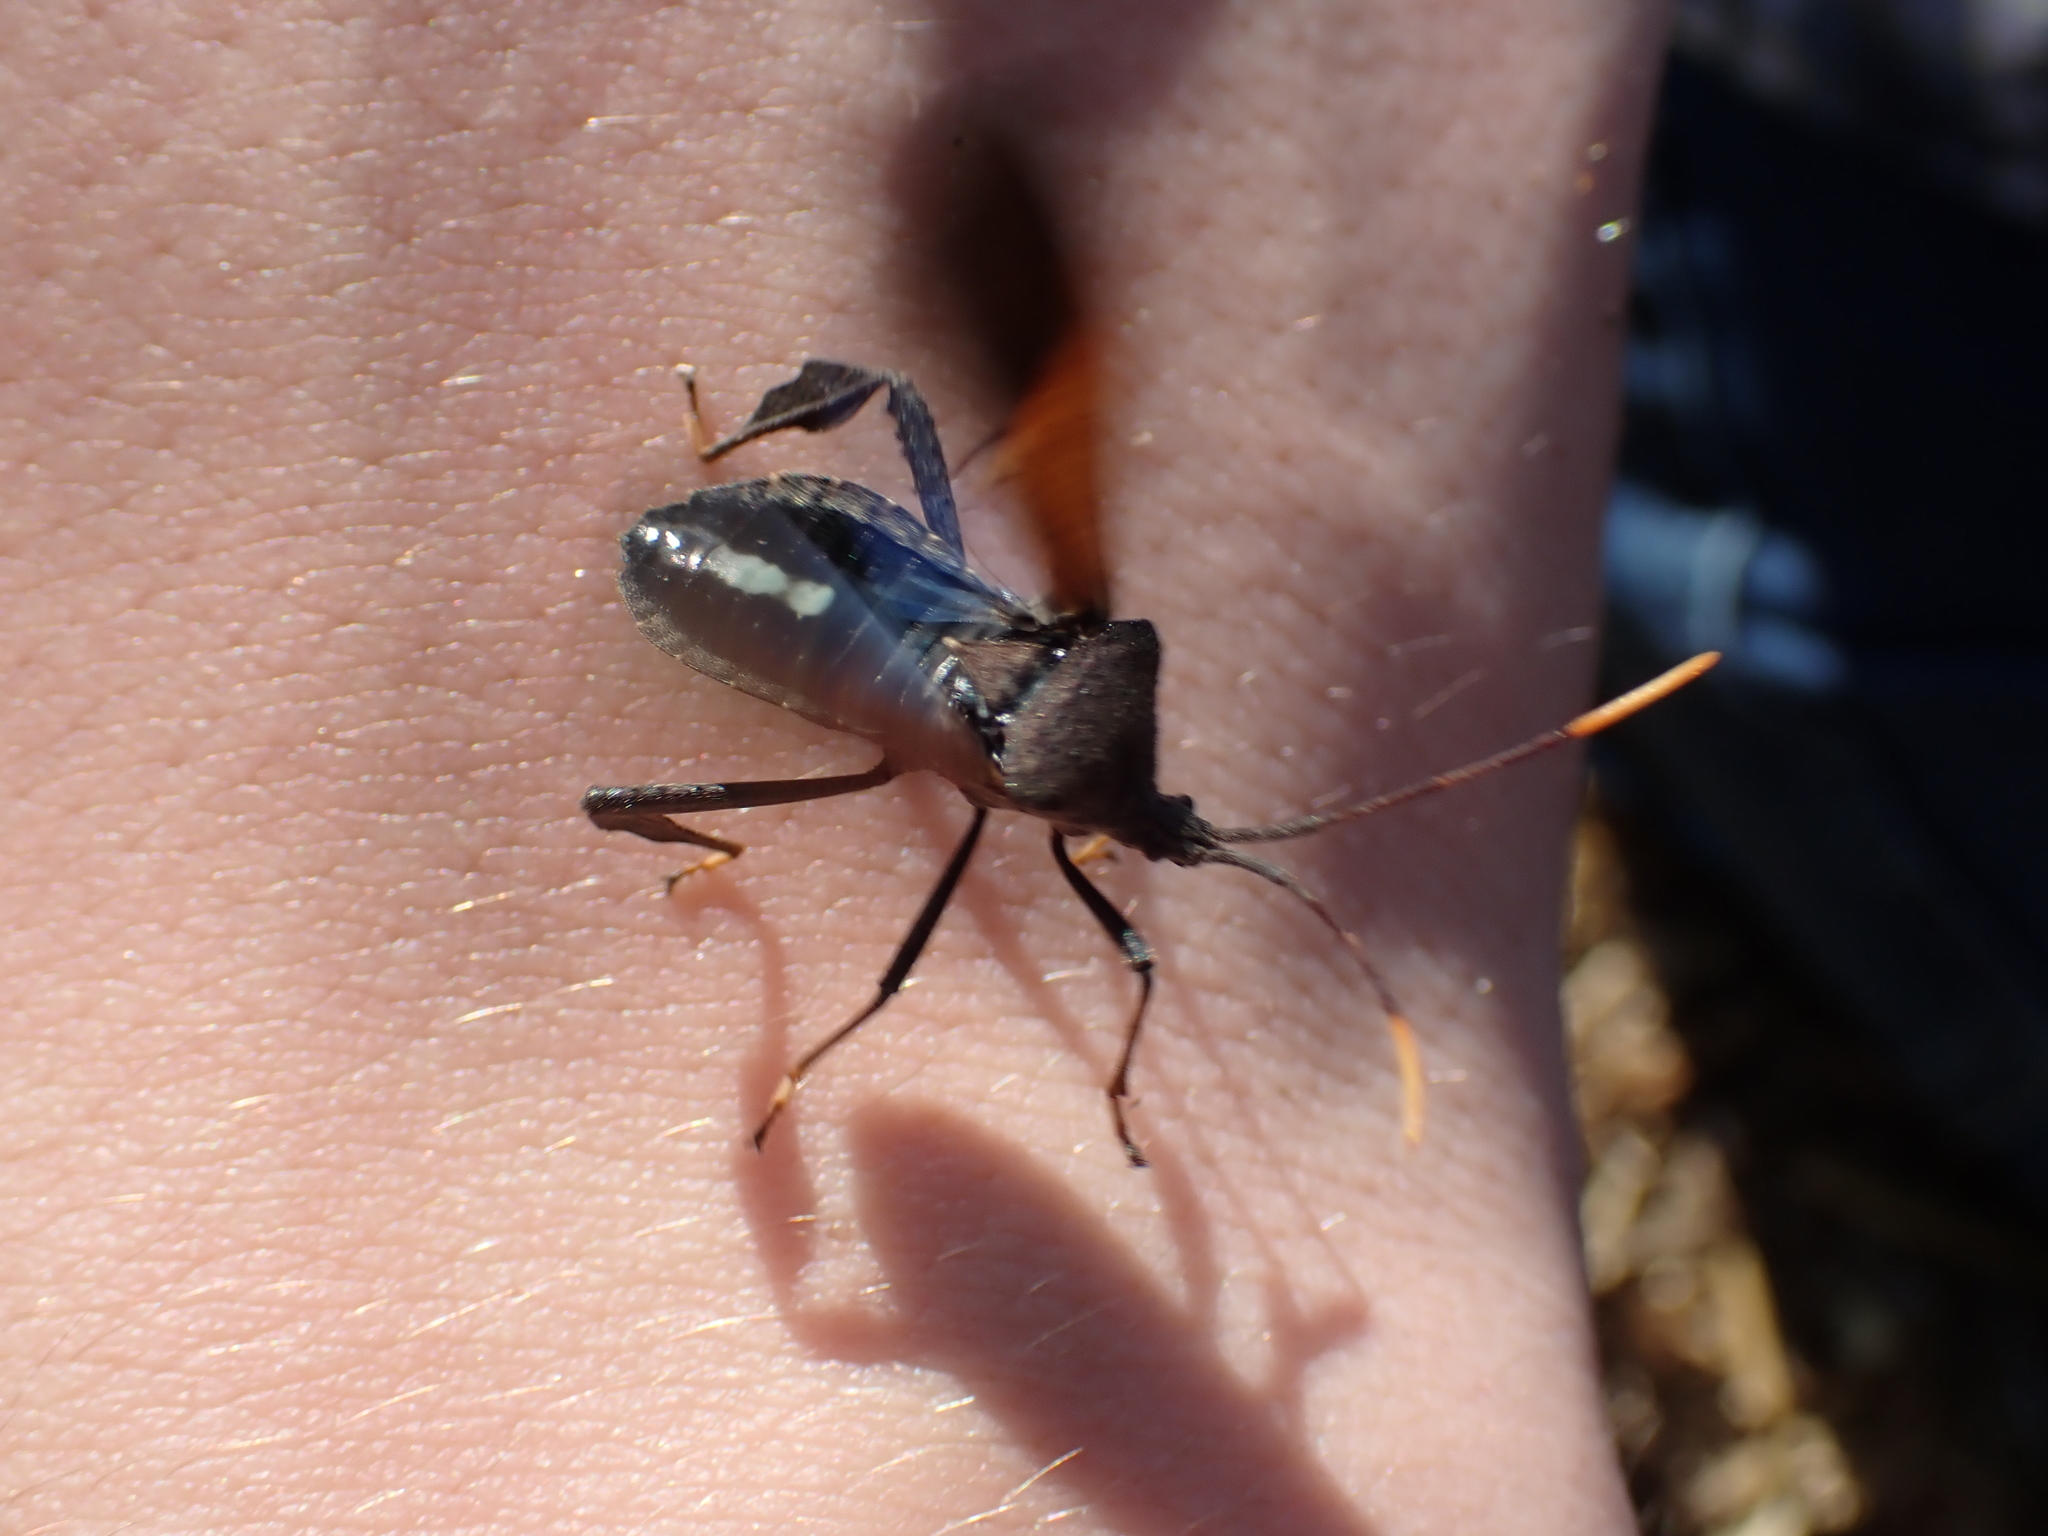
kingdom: Animalia
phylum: Arthropoda
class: Insecta
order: Hemiptera
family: Coreidae
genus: Acanthocephala
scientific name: Acanthocephala terminalis
